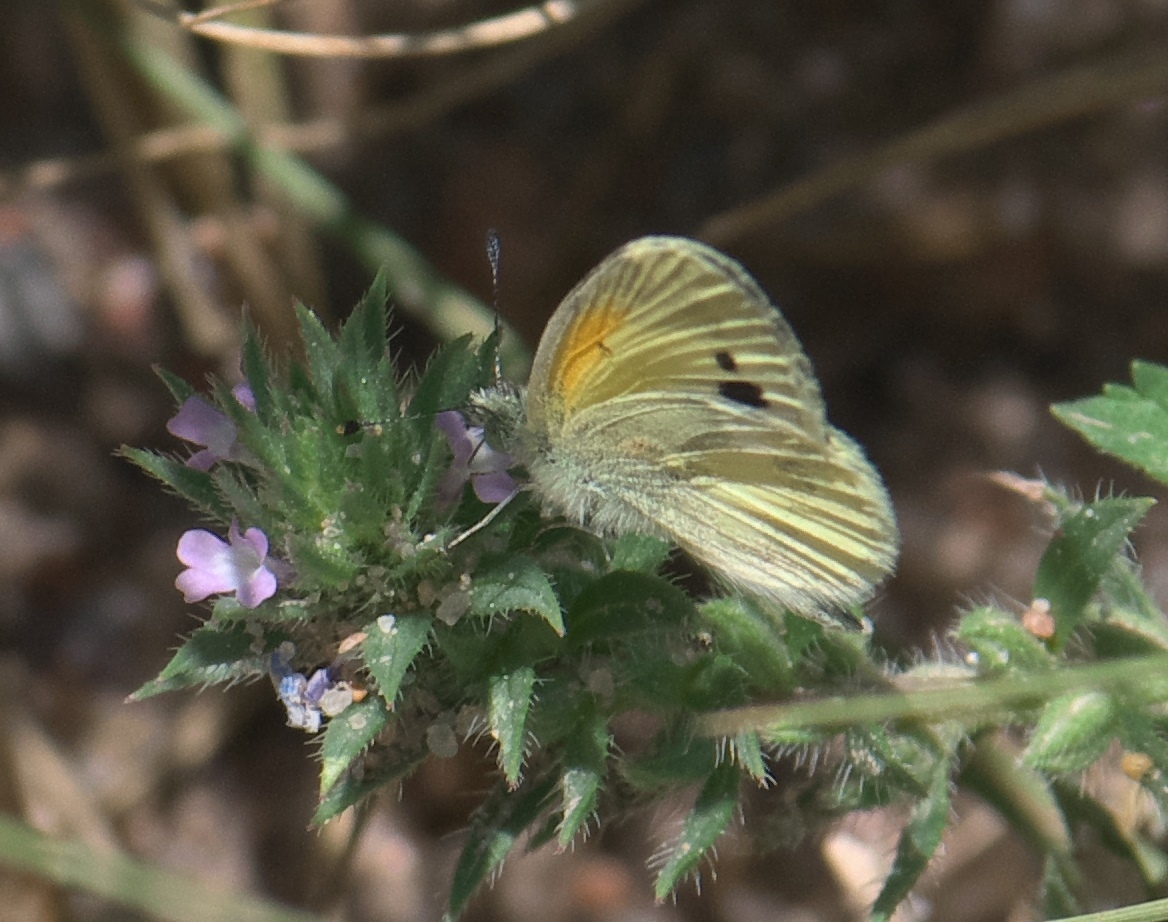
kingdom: Animalia
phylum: Arthropoda
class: Insecta
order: Lepidoptera
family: Pieridae
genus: Nathalis
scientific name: Nathalis iole
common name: Dainty sulphur
